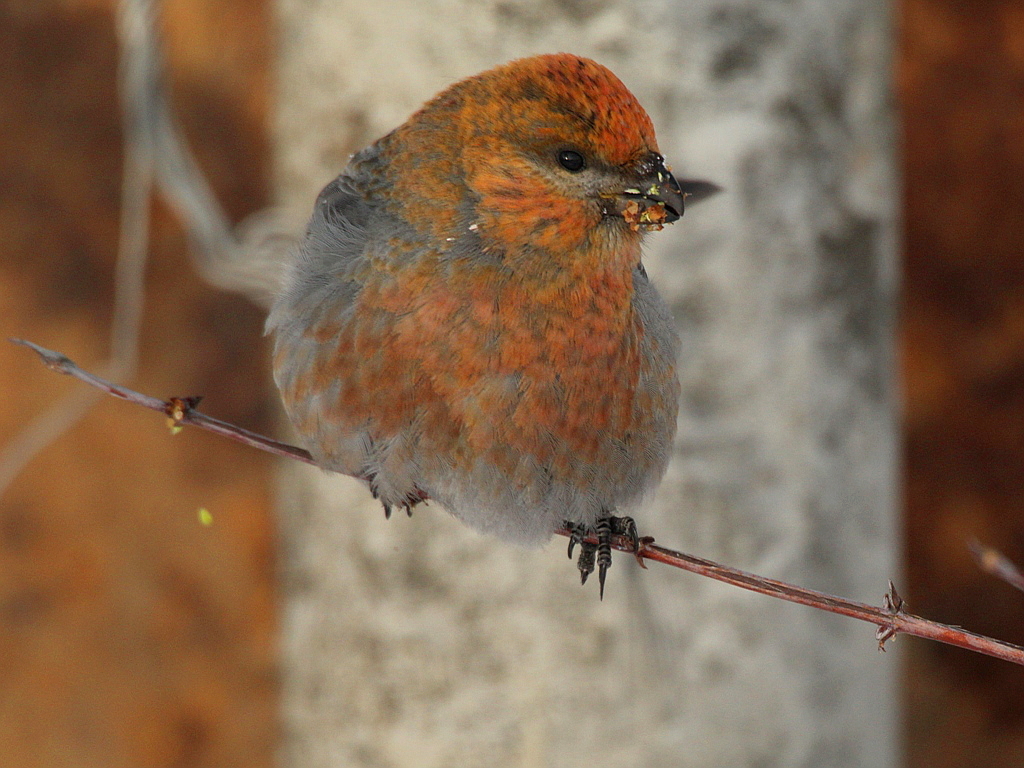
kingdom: Animalia
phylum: Chordata
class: Aves
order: Passeriformes
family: Fringillidae
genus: Pinicola
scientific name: Pinicola enucleator
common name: Pine grosbeak
